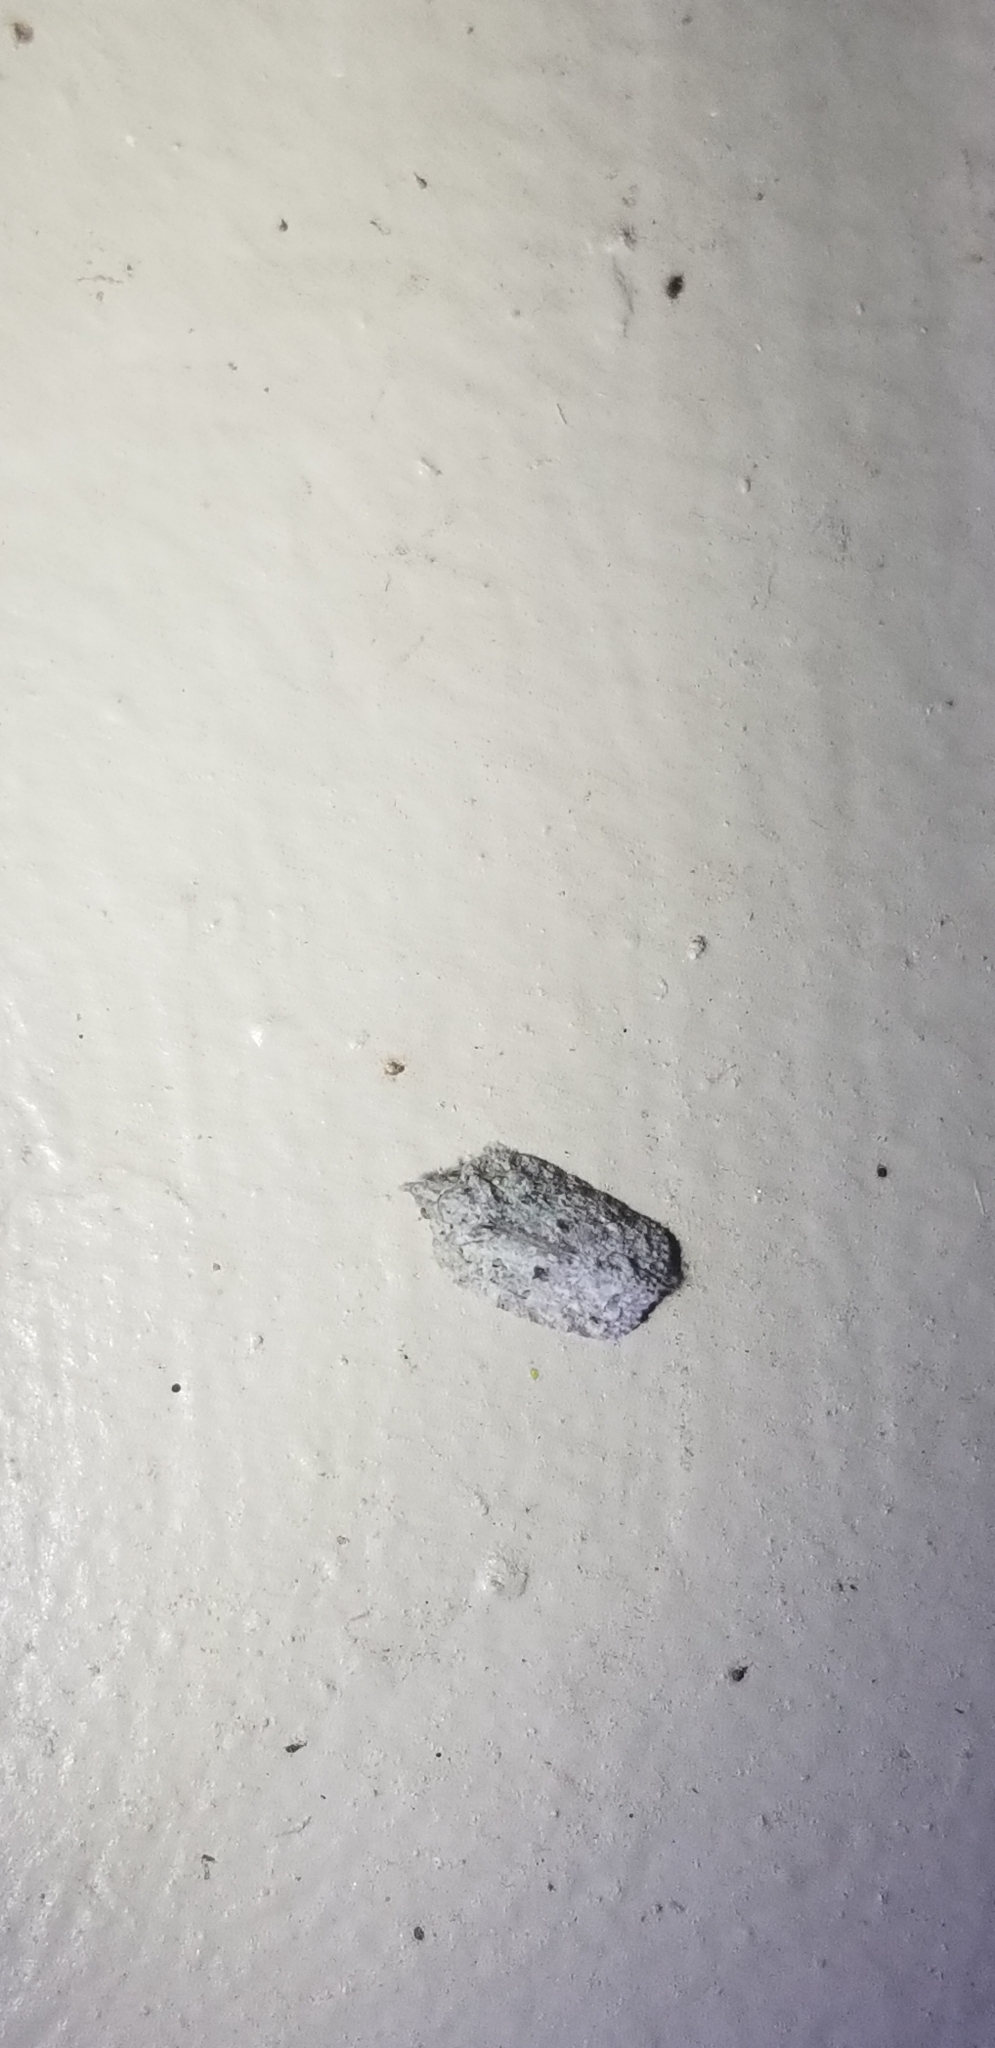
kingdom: Animalia
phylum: Arthropoda
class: Insecta
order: Hemiptera
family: Flatidae
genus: Flatoidinus
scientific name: Flatoidinus punctatus
